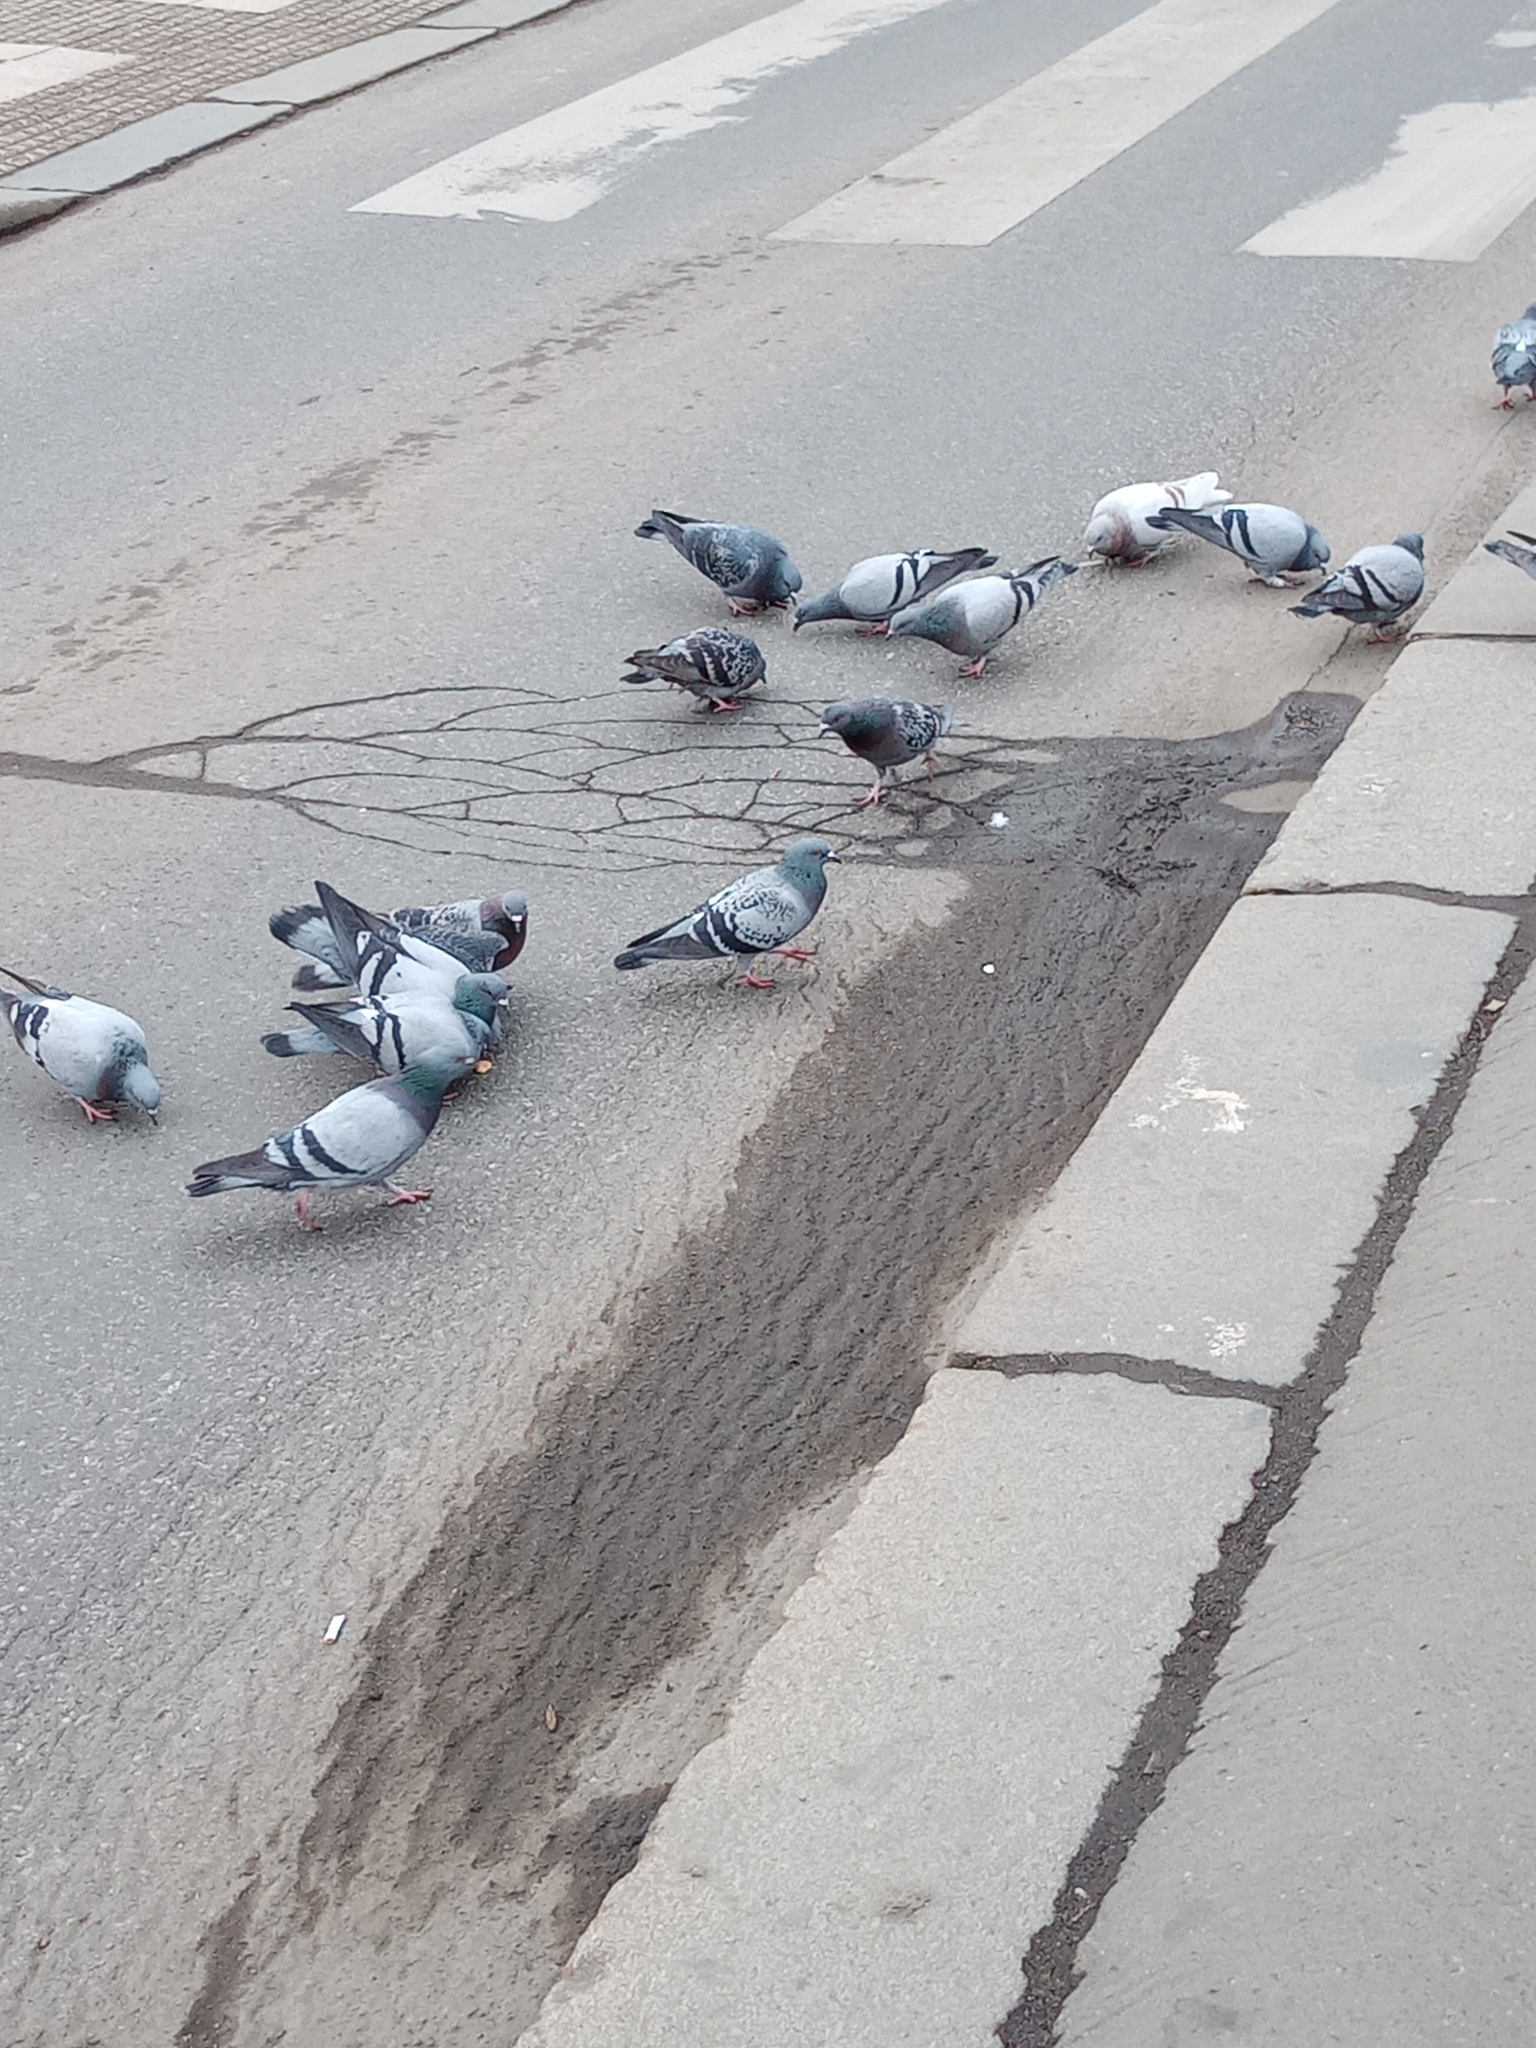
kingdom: Animalia
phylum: Chordata
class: Aves
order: Columbiformes
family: Columbidae
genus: Columba
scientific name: Columba livia
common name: Rock pigeon
